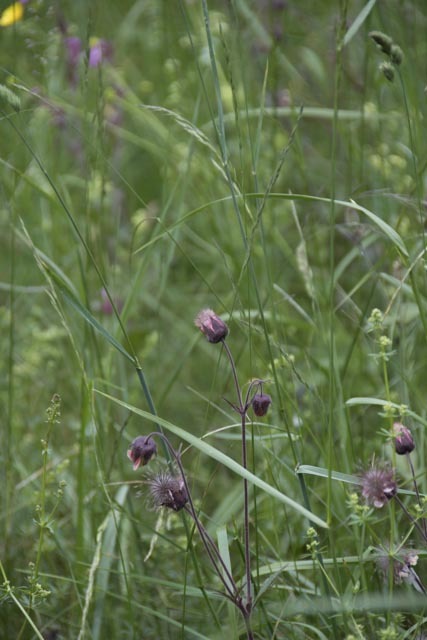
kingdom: Plantae
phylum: Tracheophyta
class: Magnoliopsida
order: Rosales
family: Rosaceae
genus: Geum
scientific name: Geum rivale
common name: Water avens
